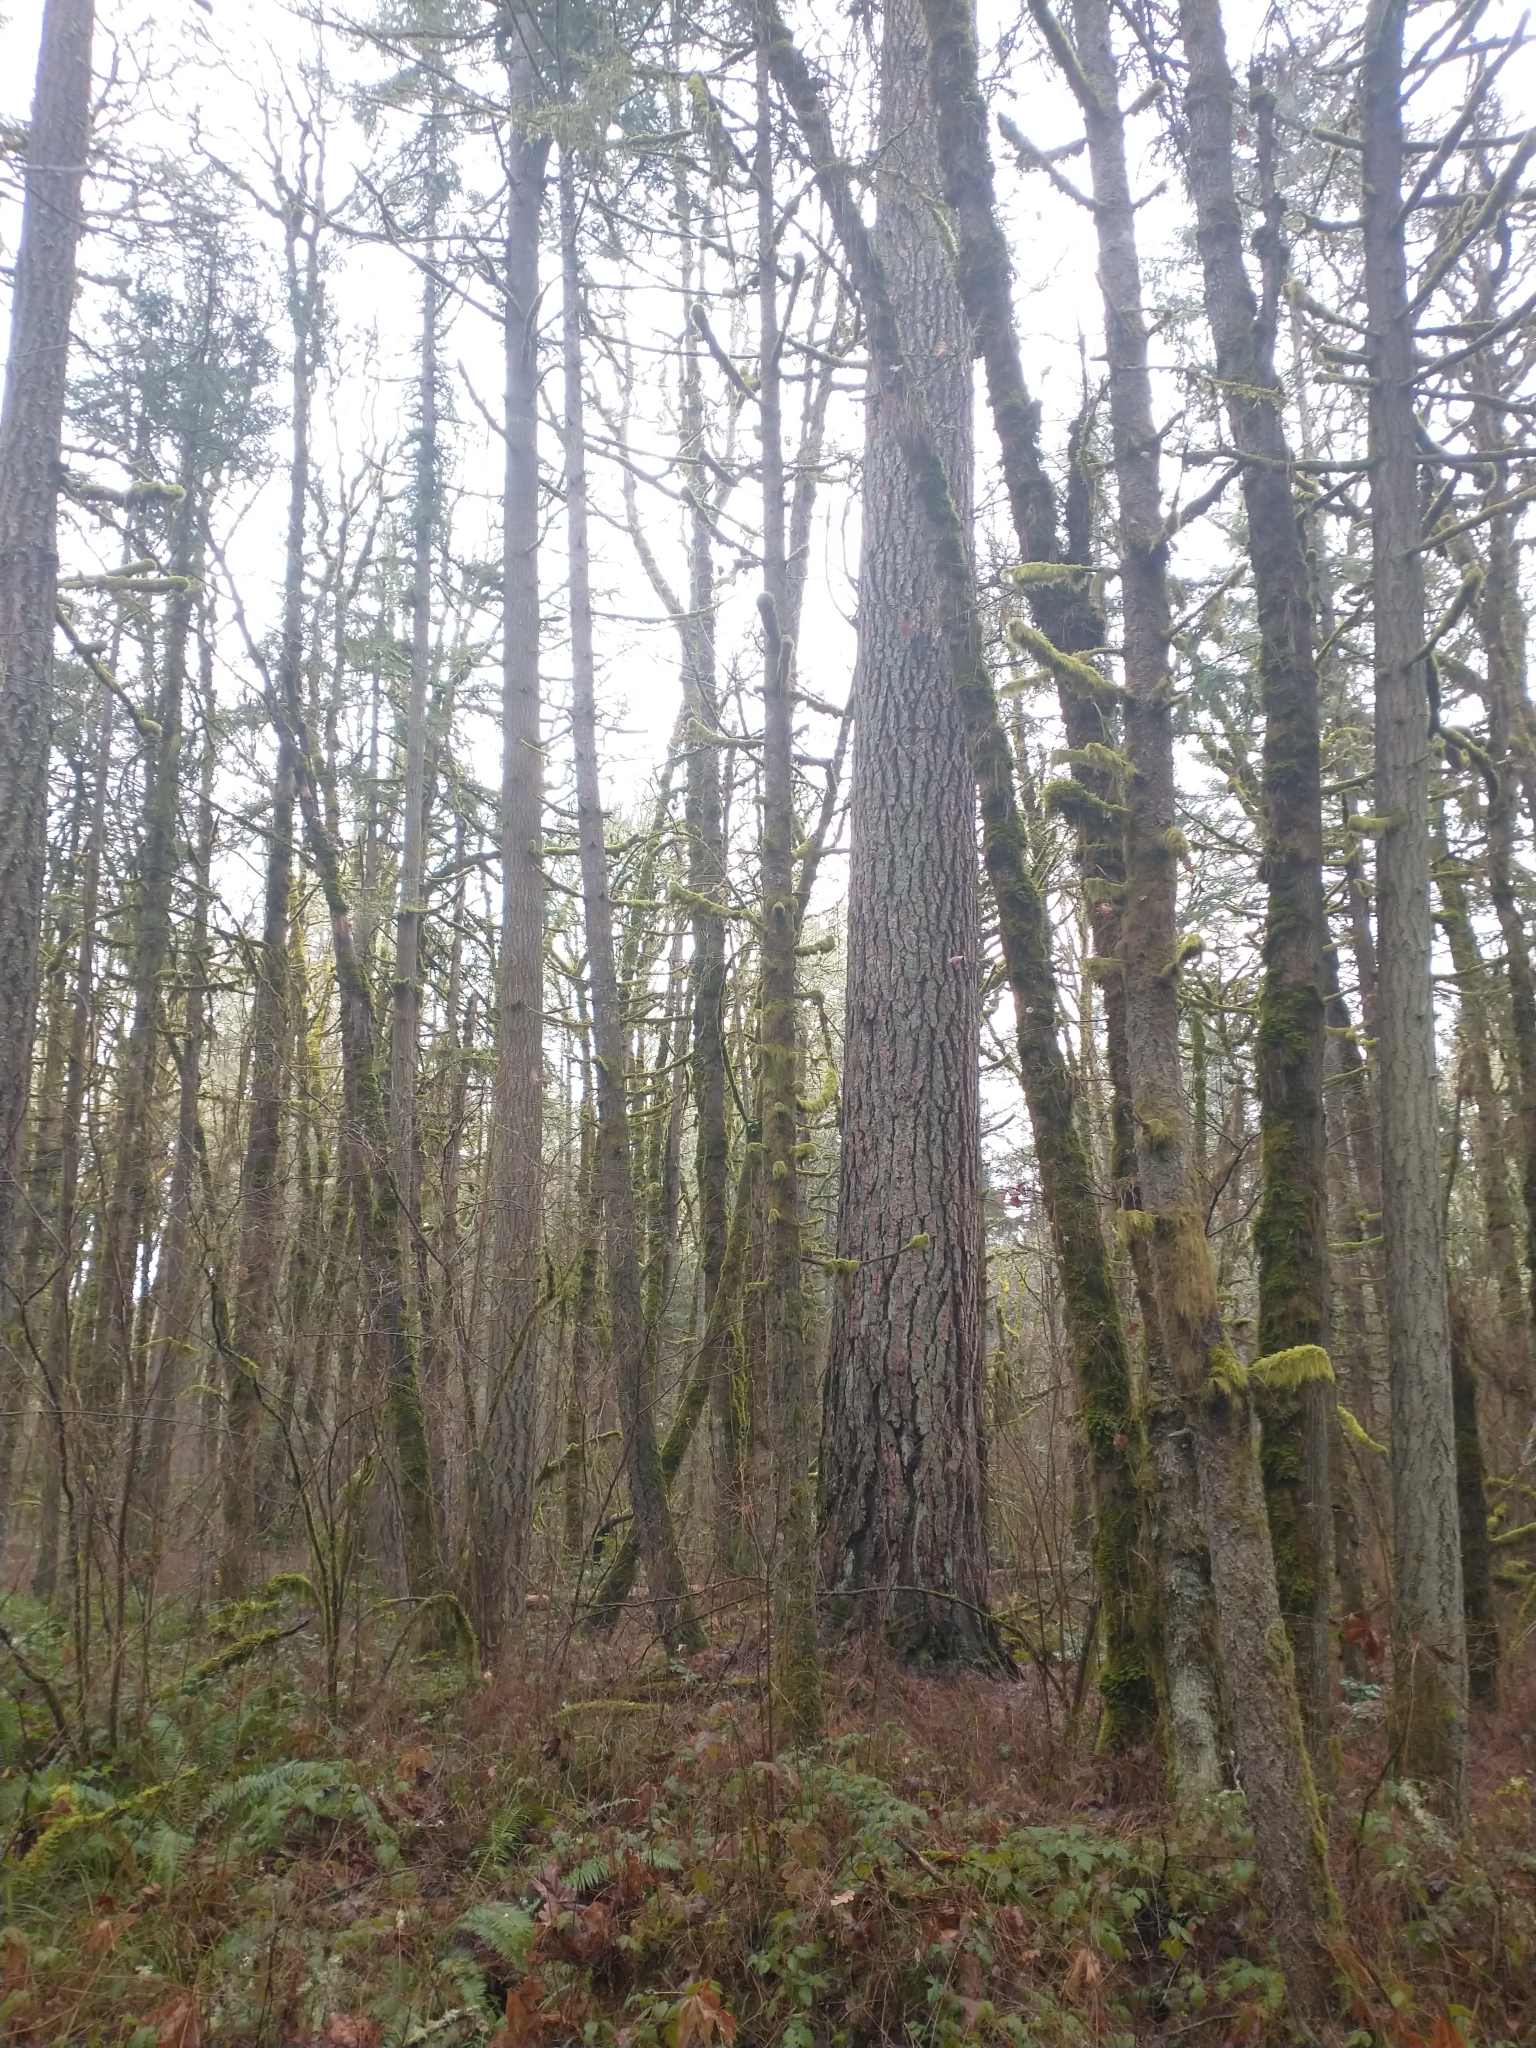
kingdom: Plantae
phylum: Tracheophyta
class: Pinopsida
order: Pinales
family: Pinaceae
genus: Pinus
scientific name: Pinus ponderosa
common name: Western yellow-pine
